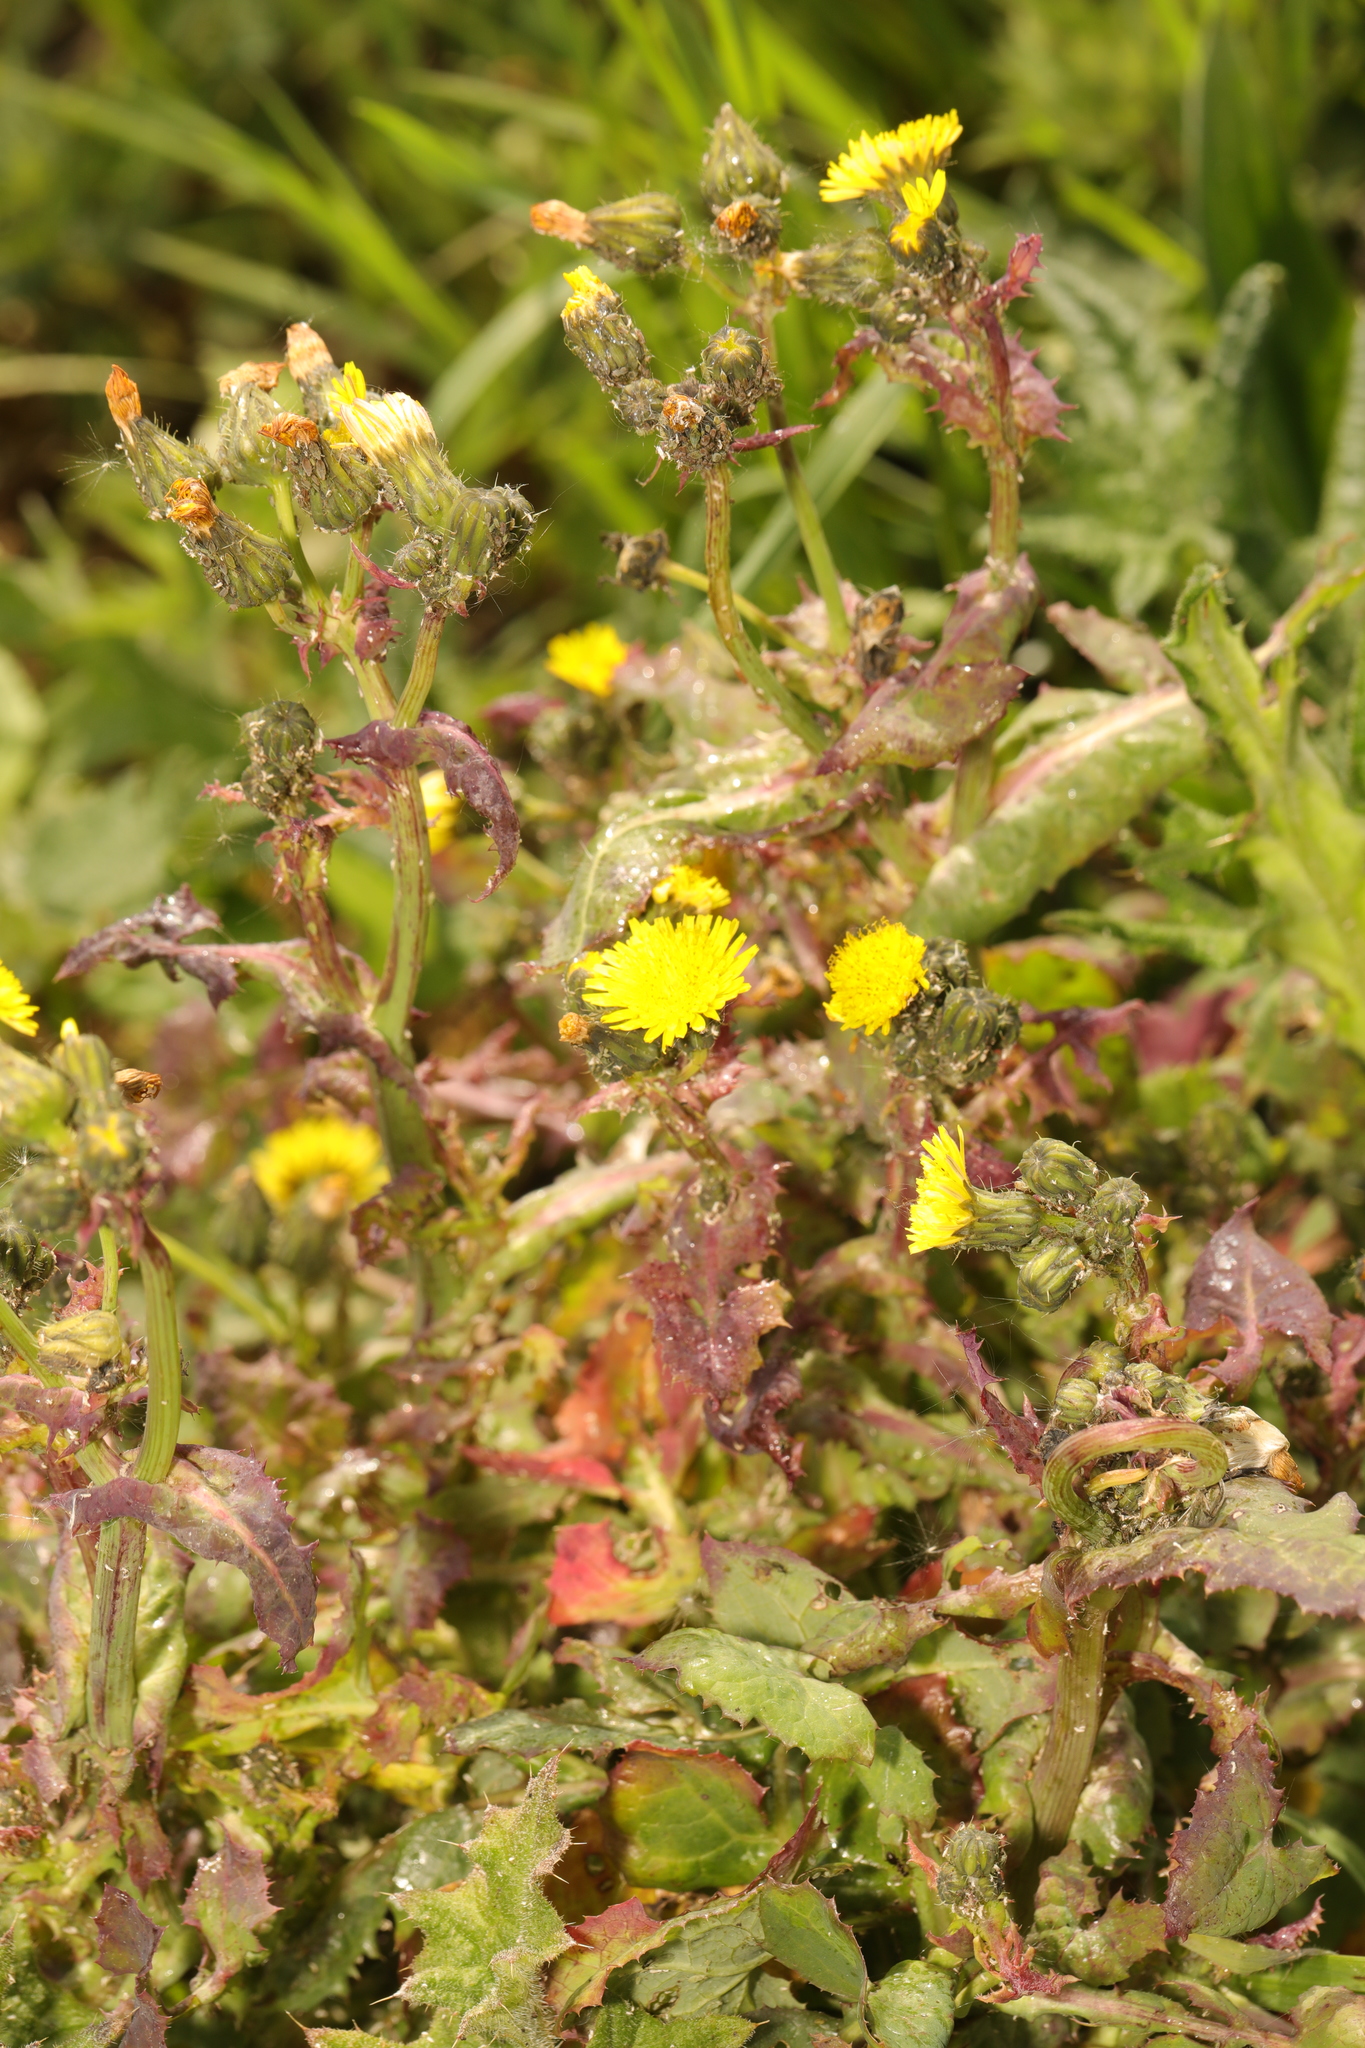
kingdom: Plantae
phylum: Tracheophyta
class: Magnoliopsida
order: Asterales
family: Asteraceae
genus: Sonchus
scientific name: Sonchus oleraceus
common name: Common sowthistle
